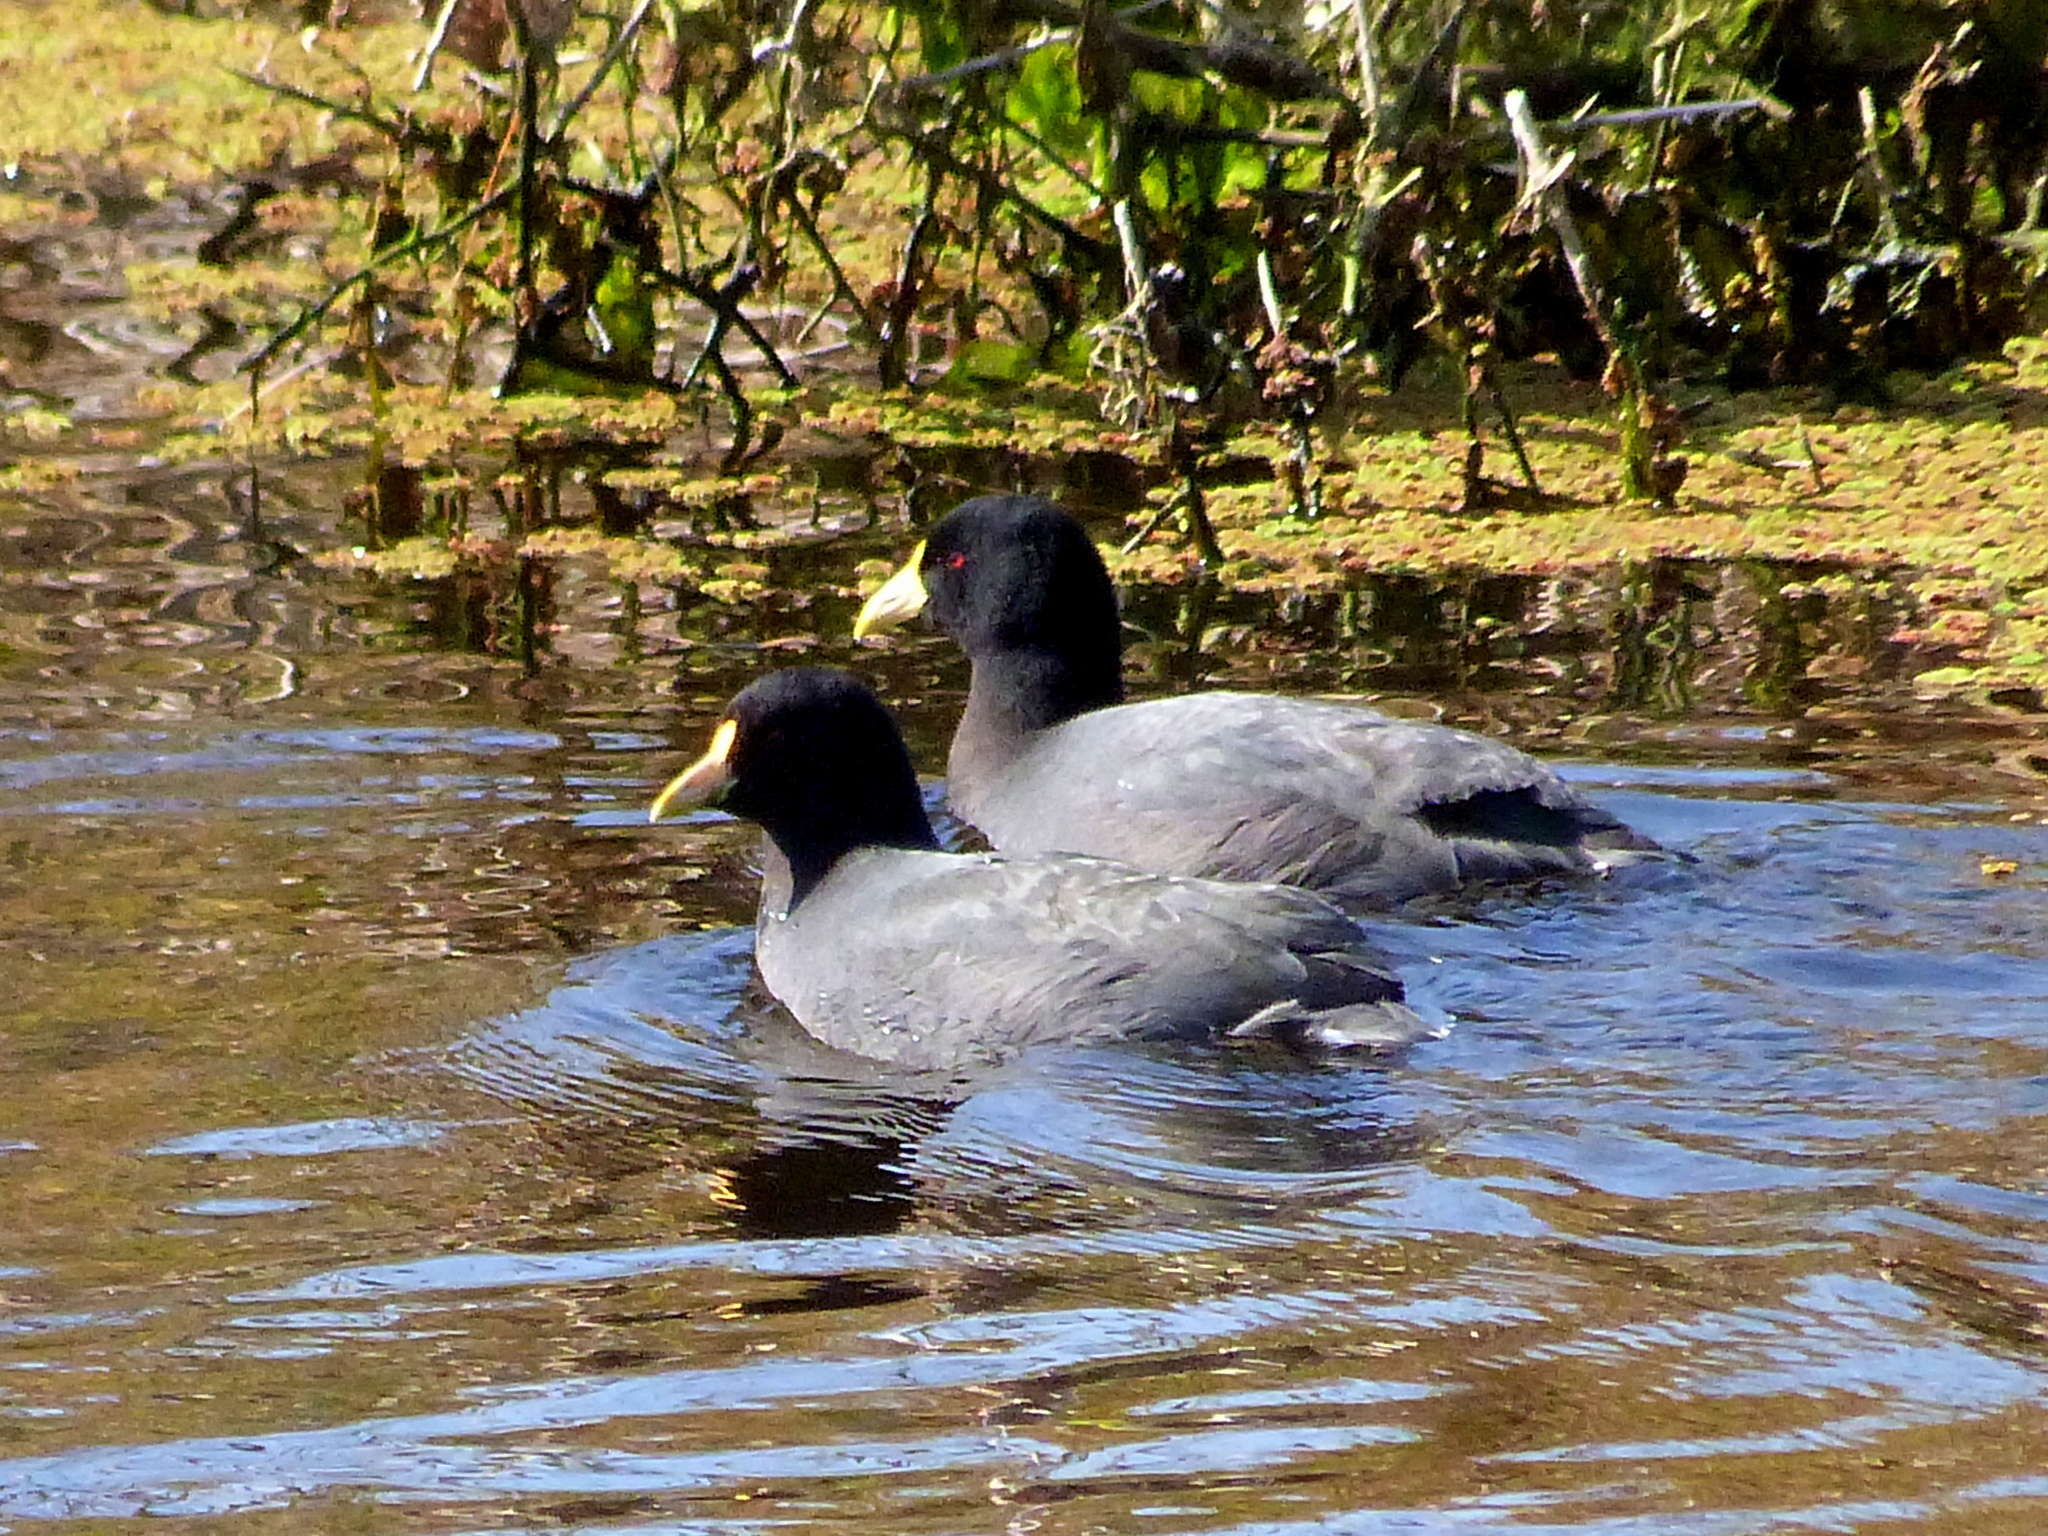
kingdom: Animalia
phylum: Chordata
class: Aves
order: Gruiformes
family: Rallidae
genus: Fulica
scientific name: Fulica leucoptera
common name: White-winged coot
